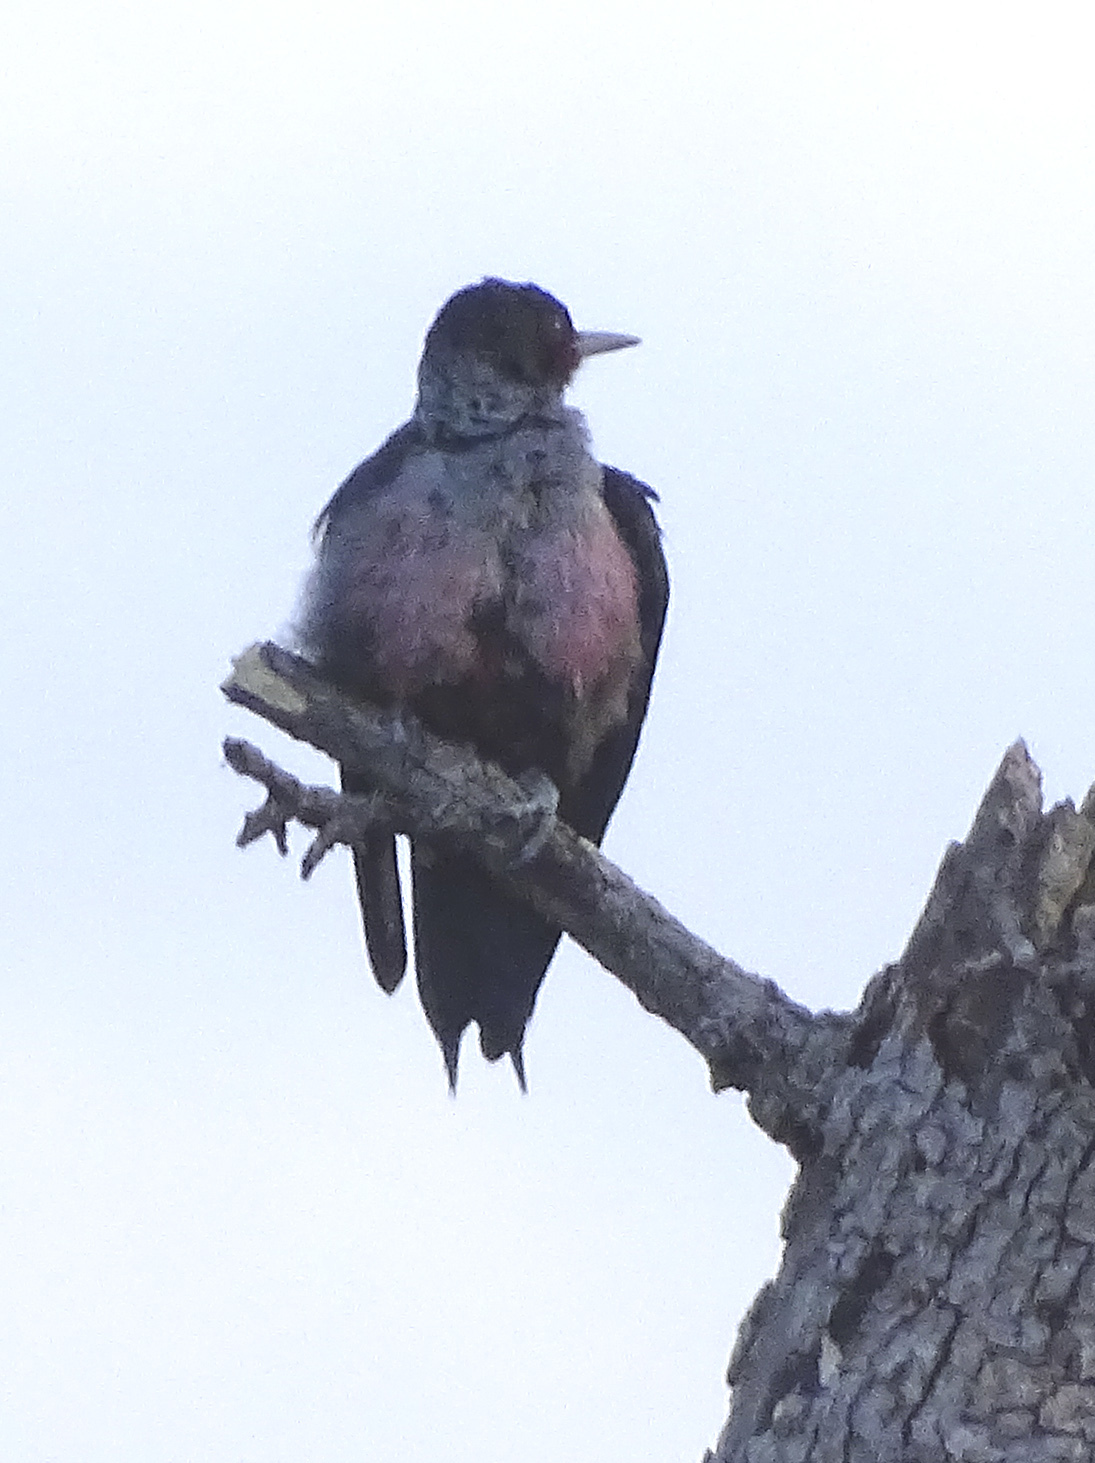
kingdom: Animalia
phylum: Chordata
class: Aves
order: Piciformes
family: Picidae
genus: Melanerpes
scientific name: Melanerpes lewis
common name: Lewis's woodpecker
